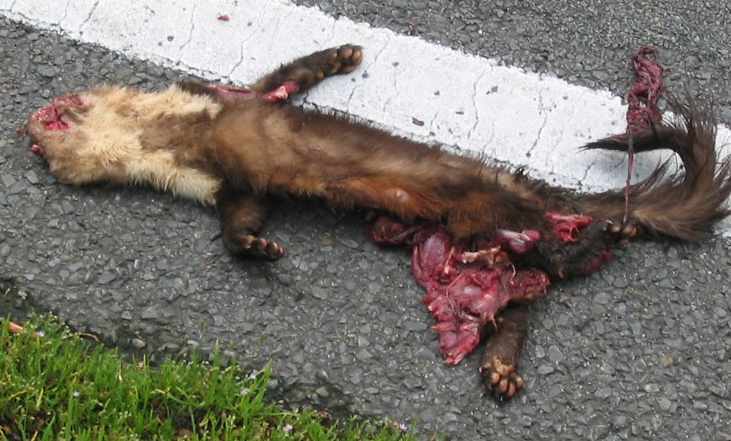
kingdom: Animalia
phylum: Chordata
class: Mammalia
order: Carnivora
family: Mustelidae
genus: Martes
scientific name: Martes foina
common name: Beech marten
